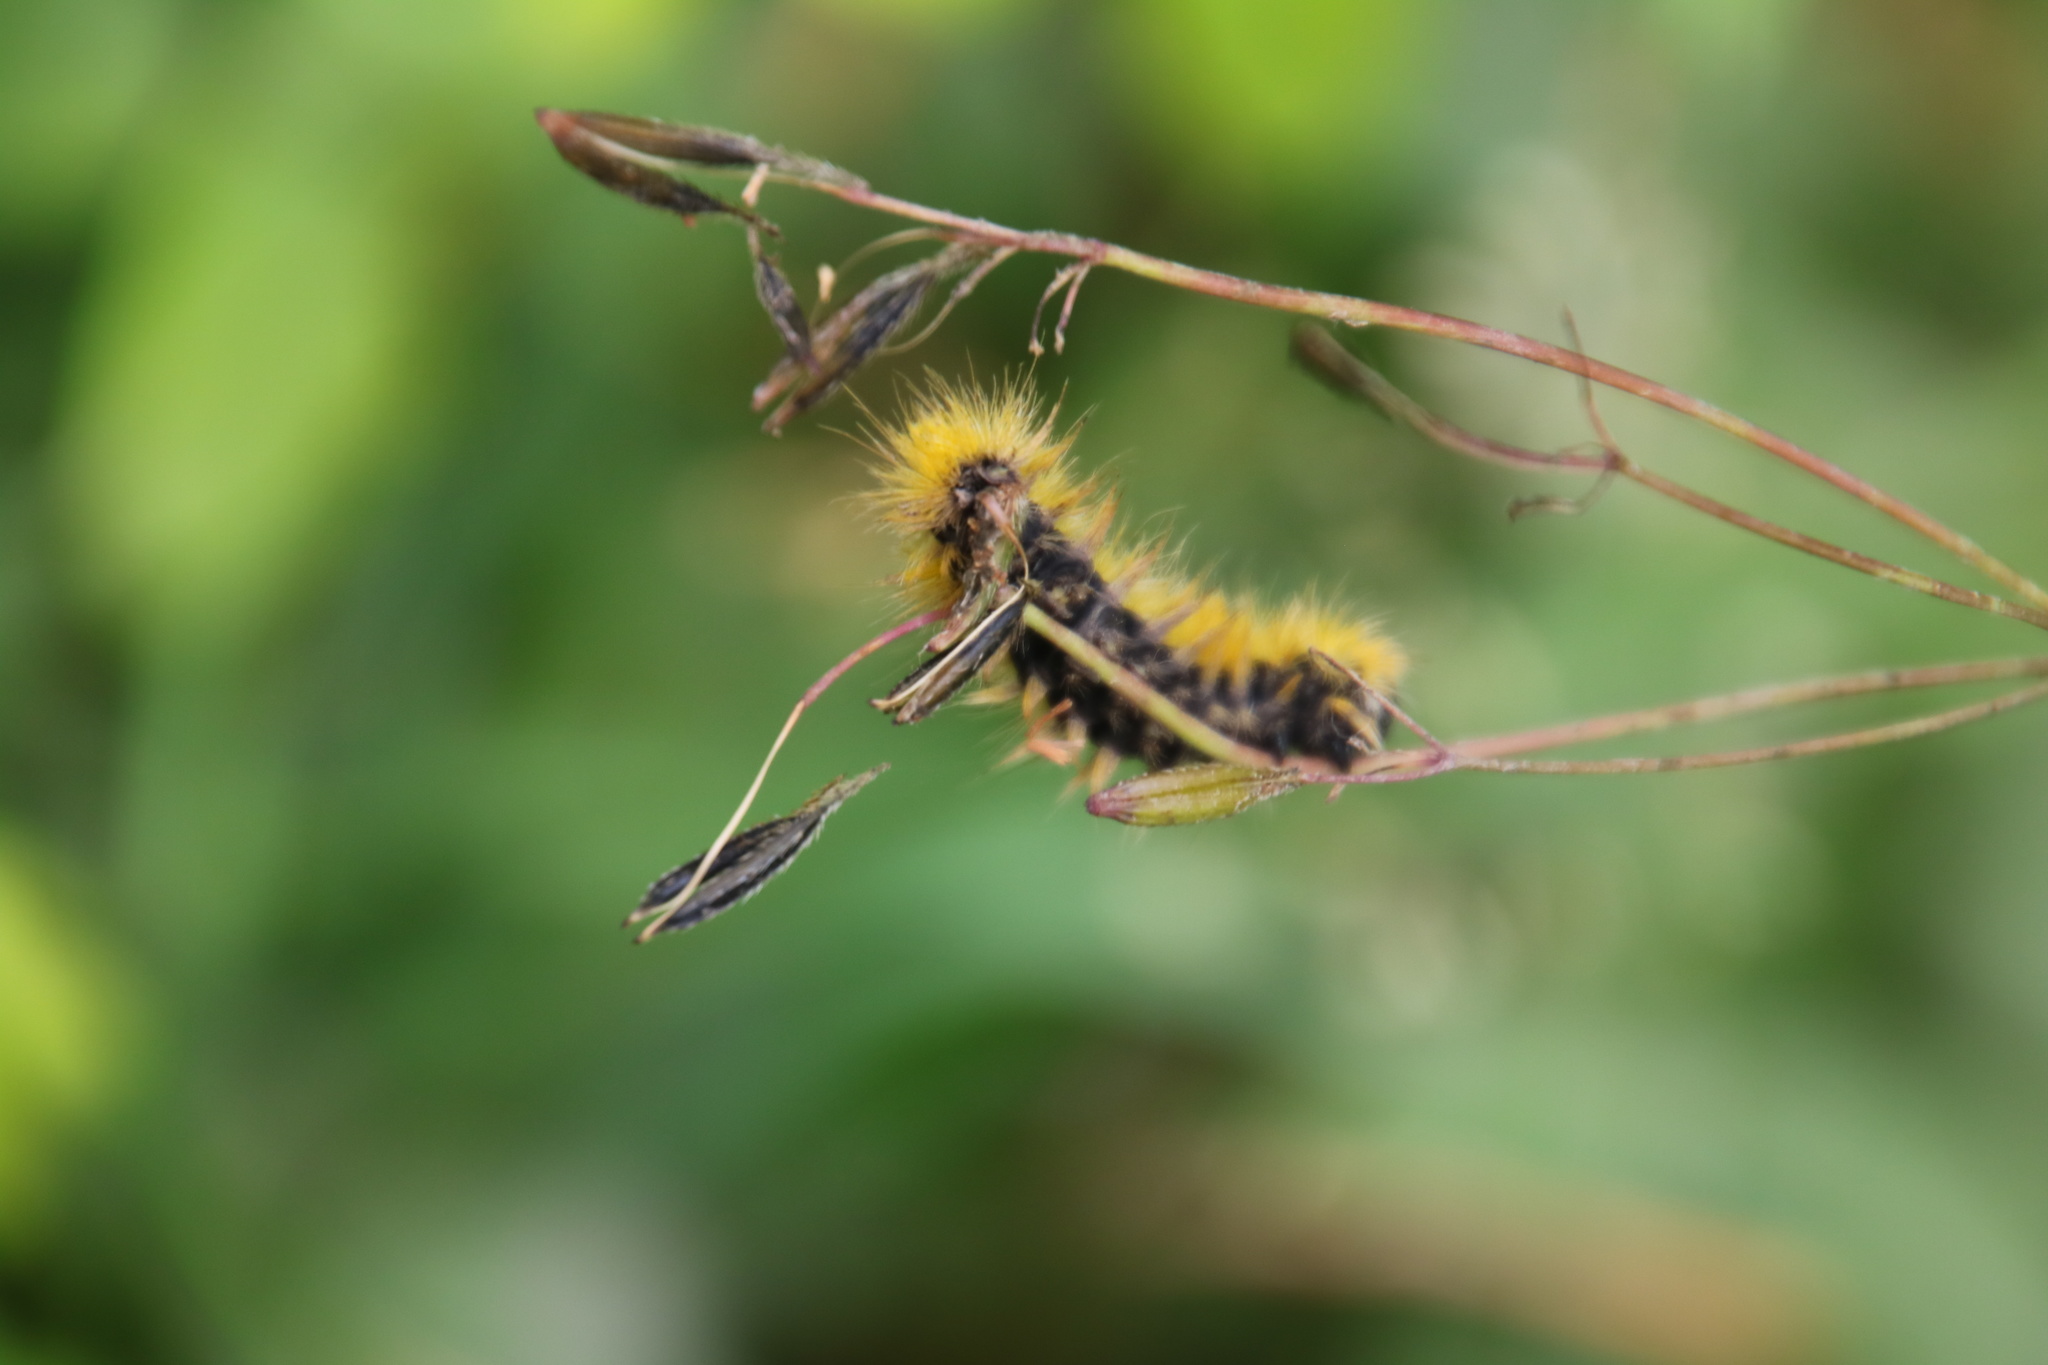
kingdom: Animalia
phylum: Arthropoda
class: Insecta
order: Lepidoptera
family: Erebidae
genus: Lophocampa
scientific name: Lophocampa argentata
